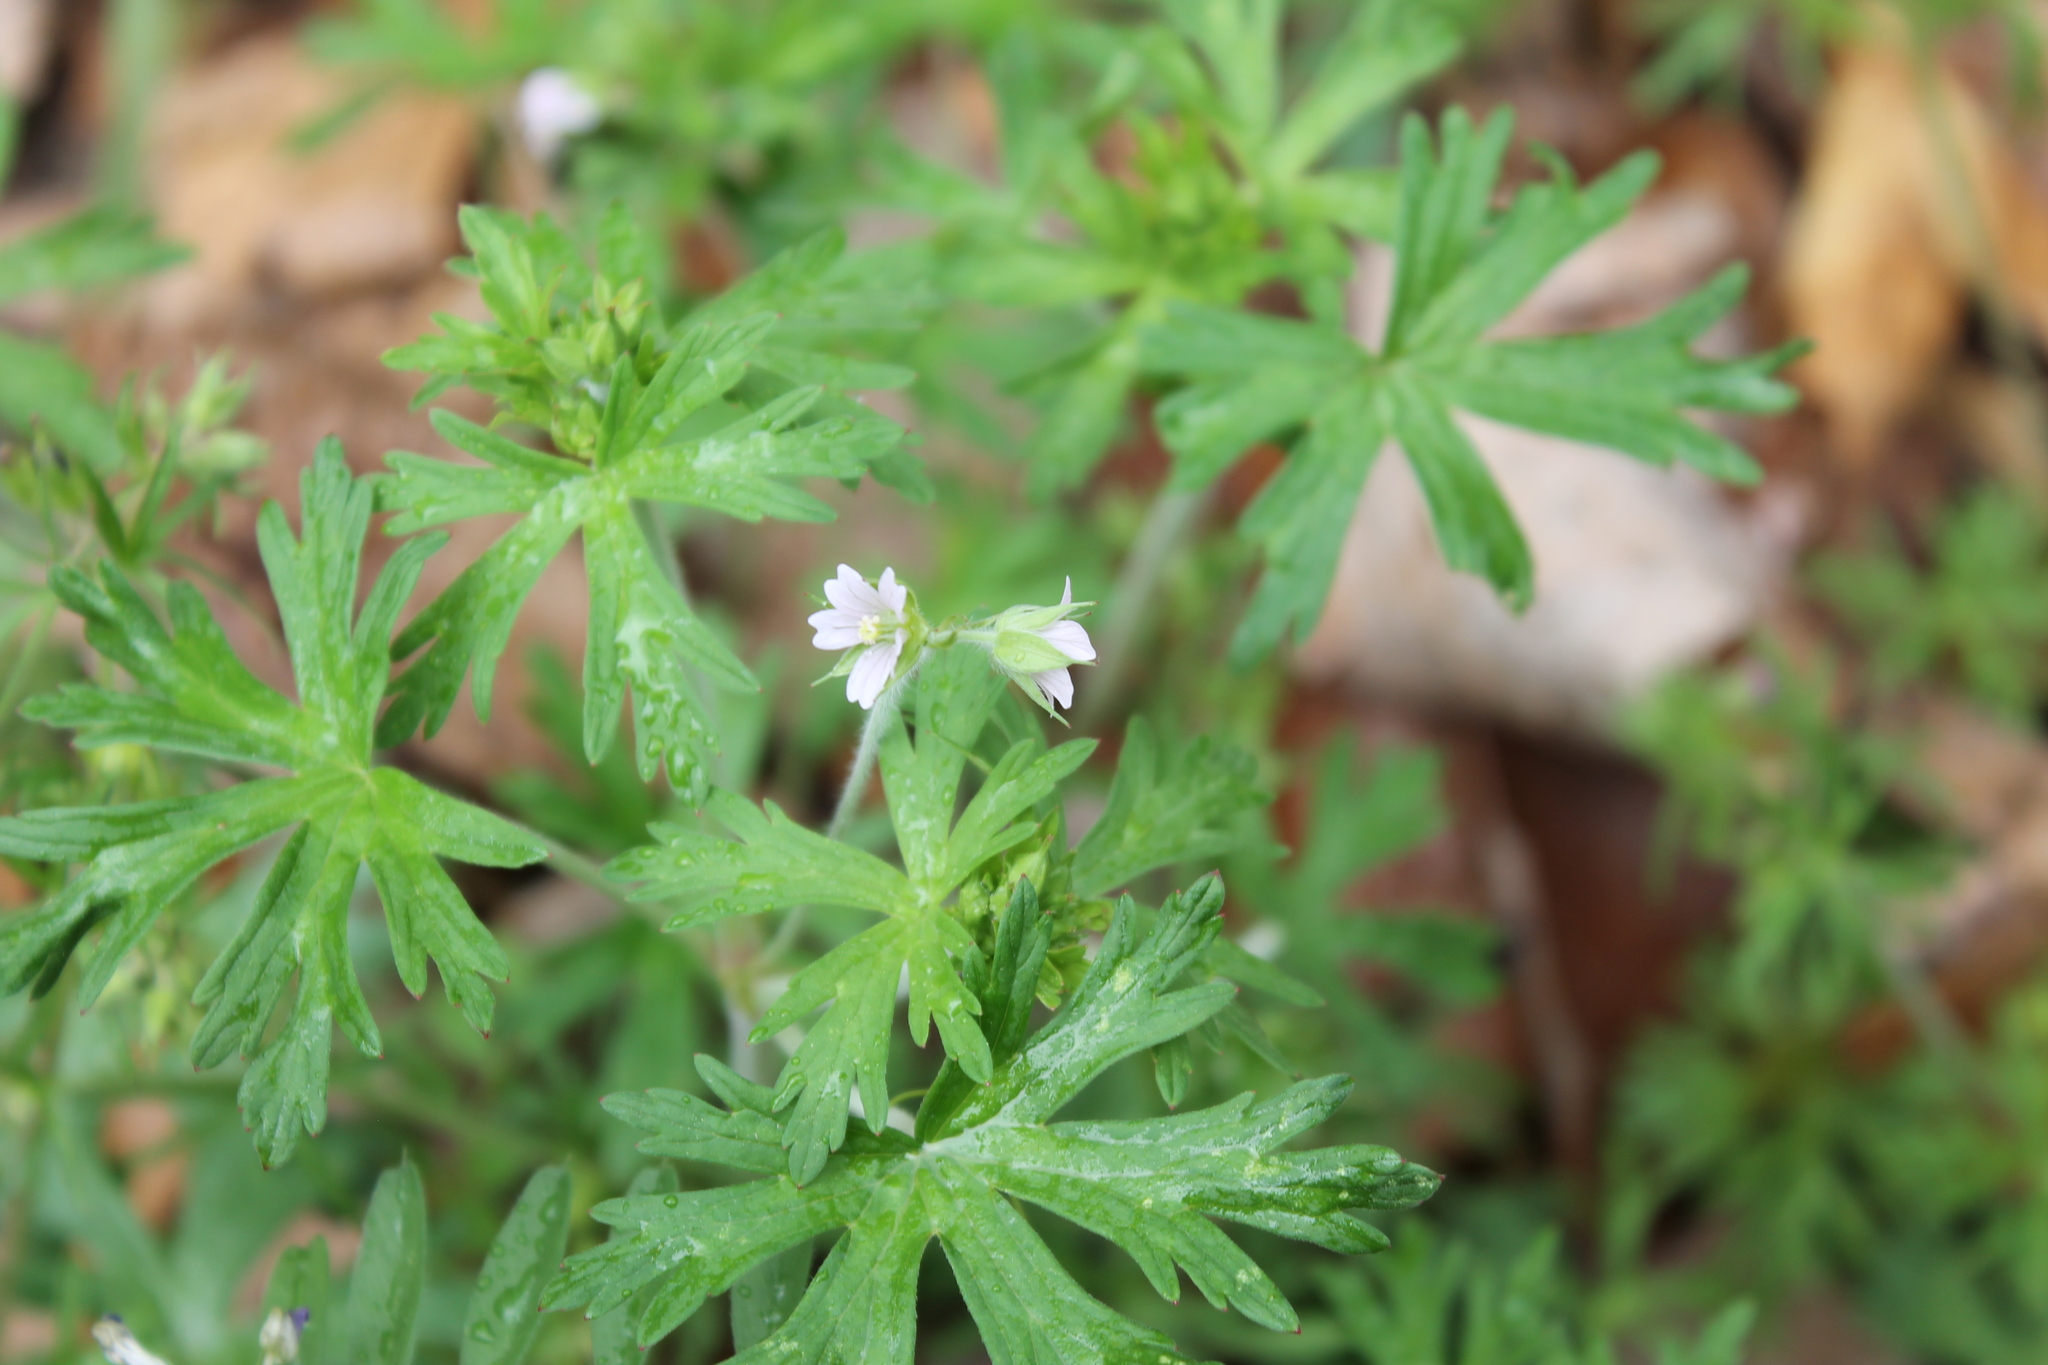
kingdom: Plantae
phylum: Tracheophyta
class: Magnoliopsida
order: Geraniales
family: Geraniaceae
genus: Geranium
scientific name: Geranium carolinianum
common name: Carolina crane's-bill
